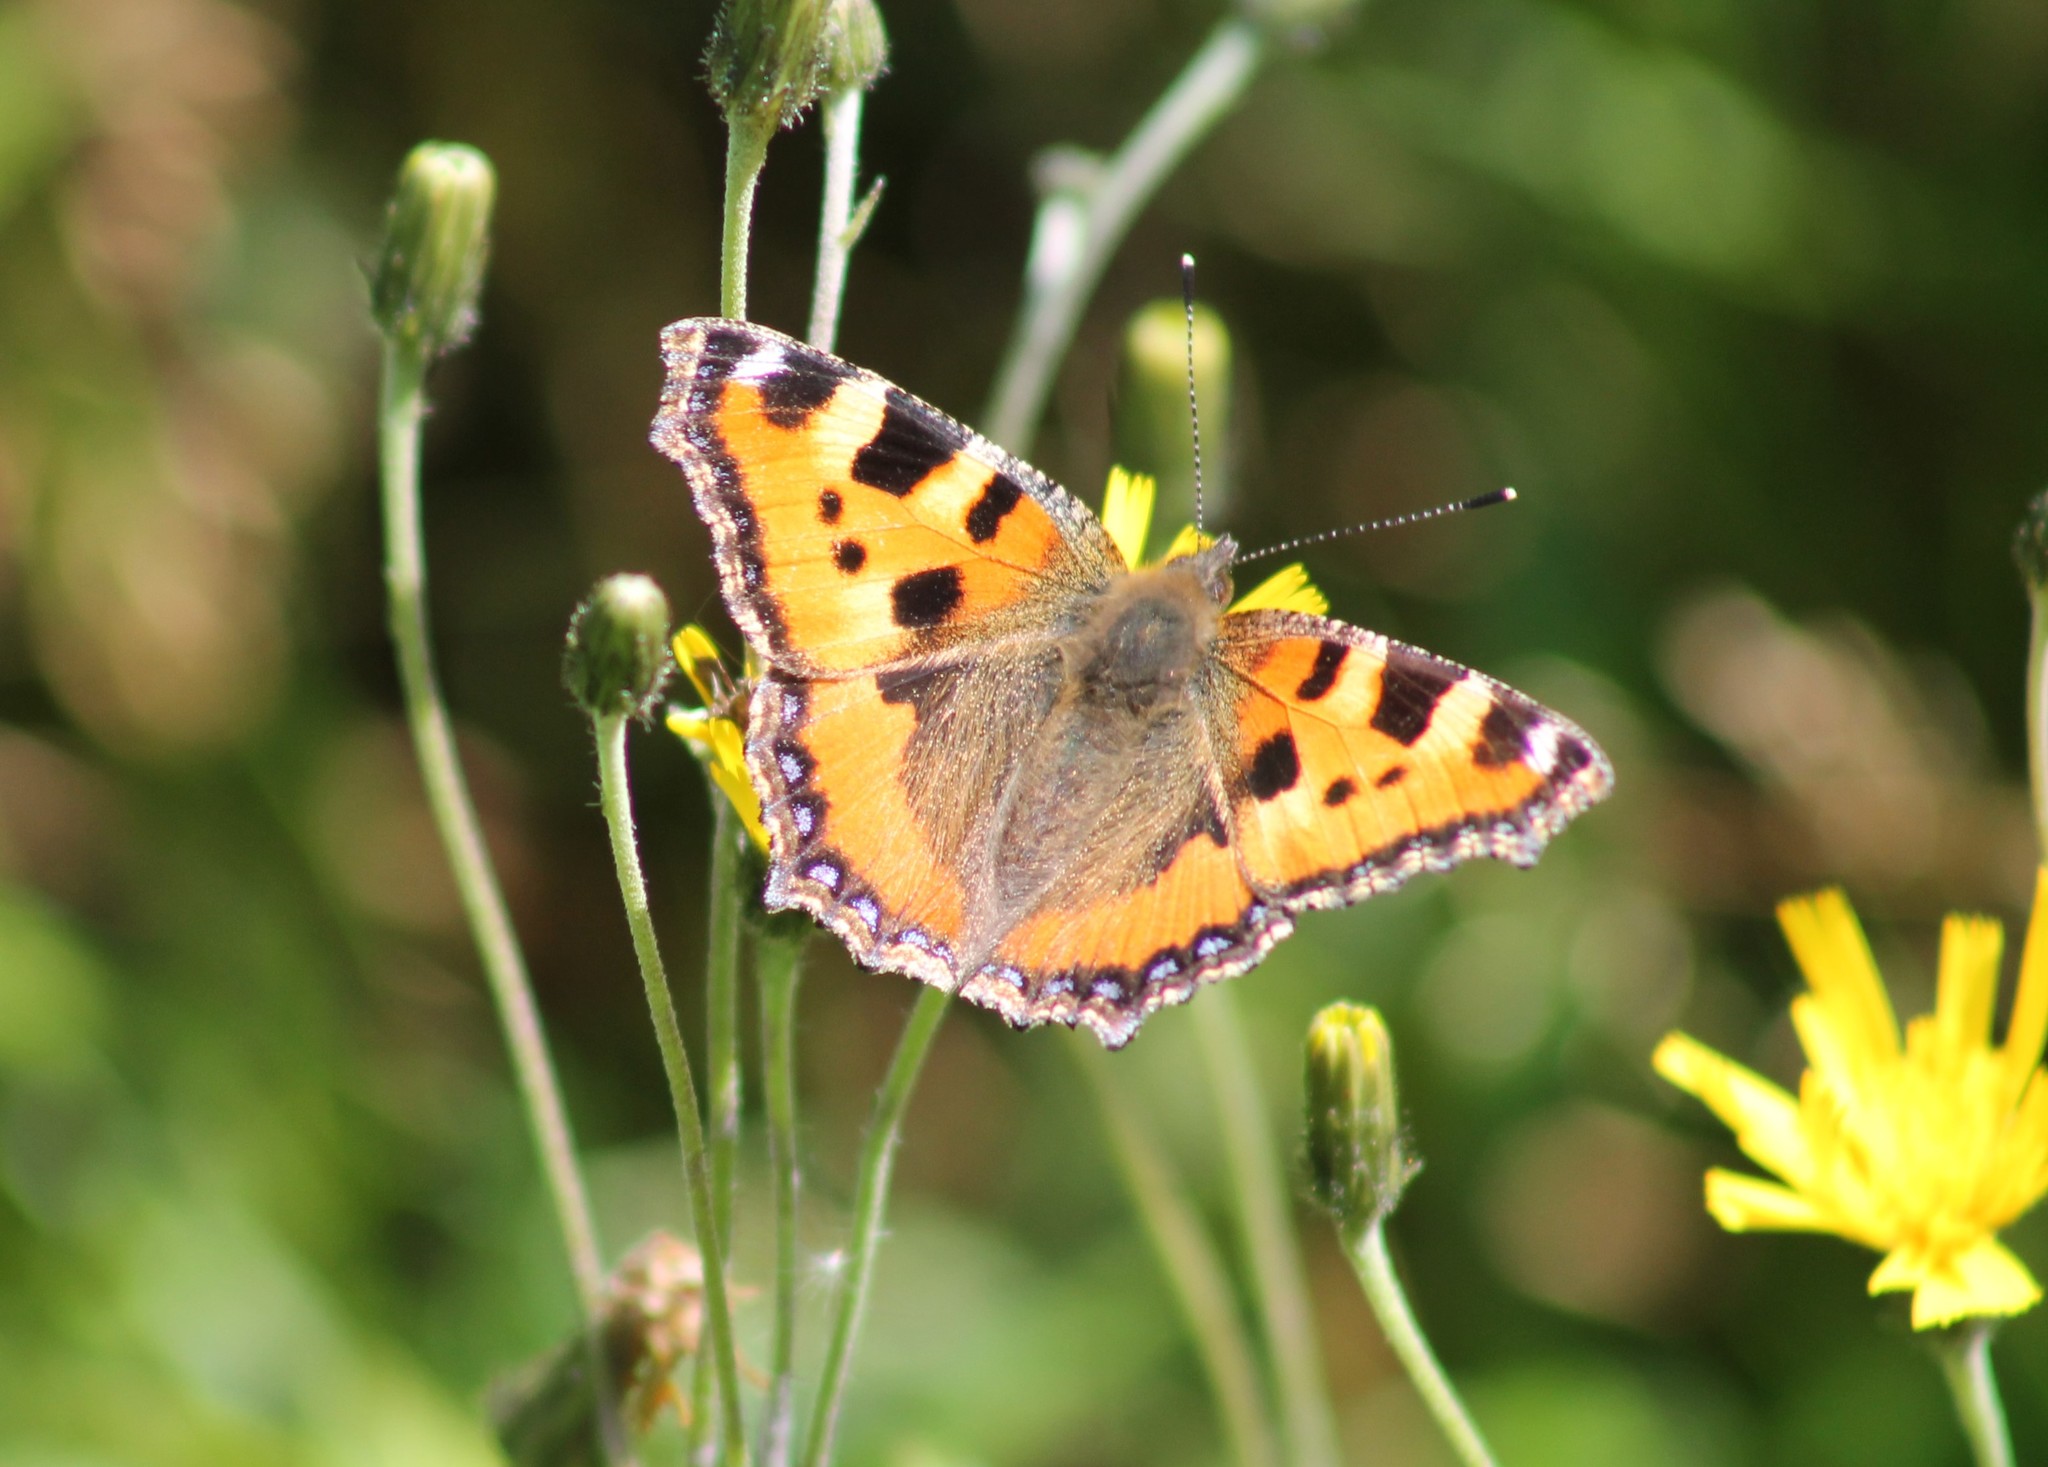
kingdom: Animalia
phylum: Arthropoda
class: Insecta
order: Lepidoptera
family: Nymphalidae
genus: Aglais
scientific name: Aglais urticae
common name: Small tortoiseshell
